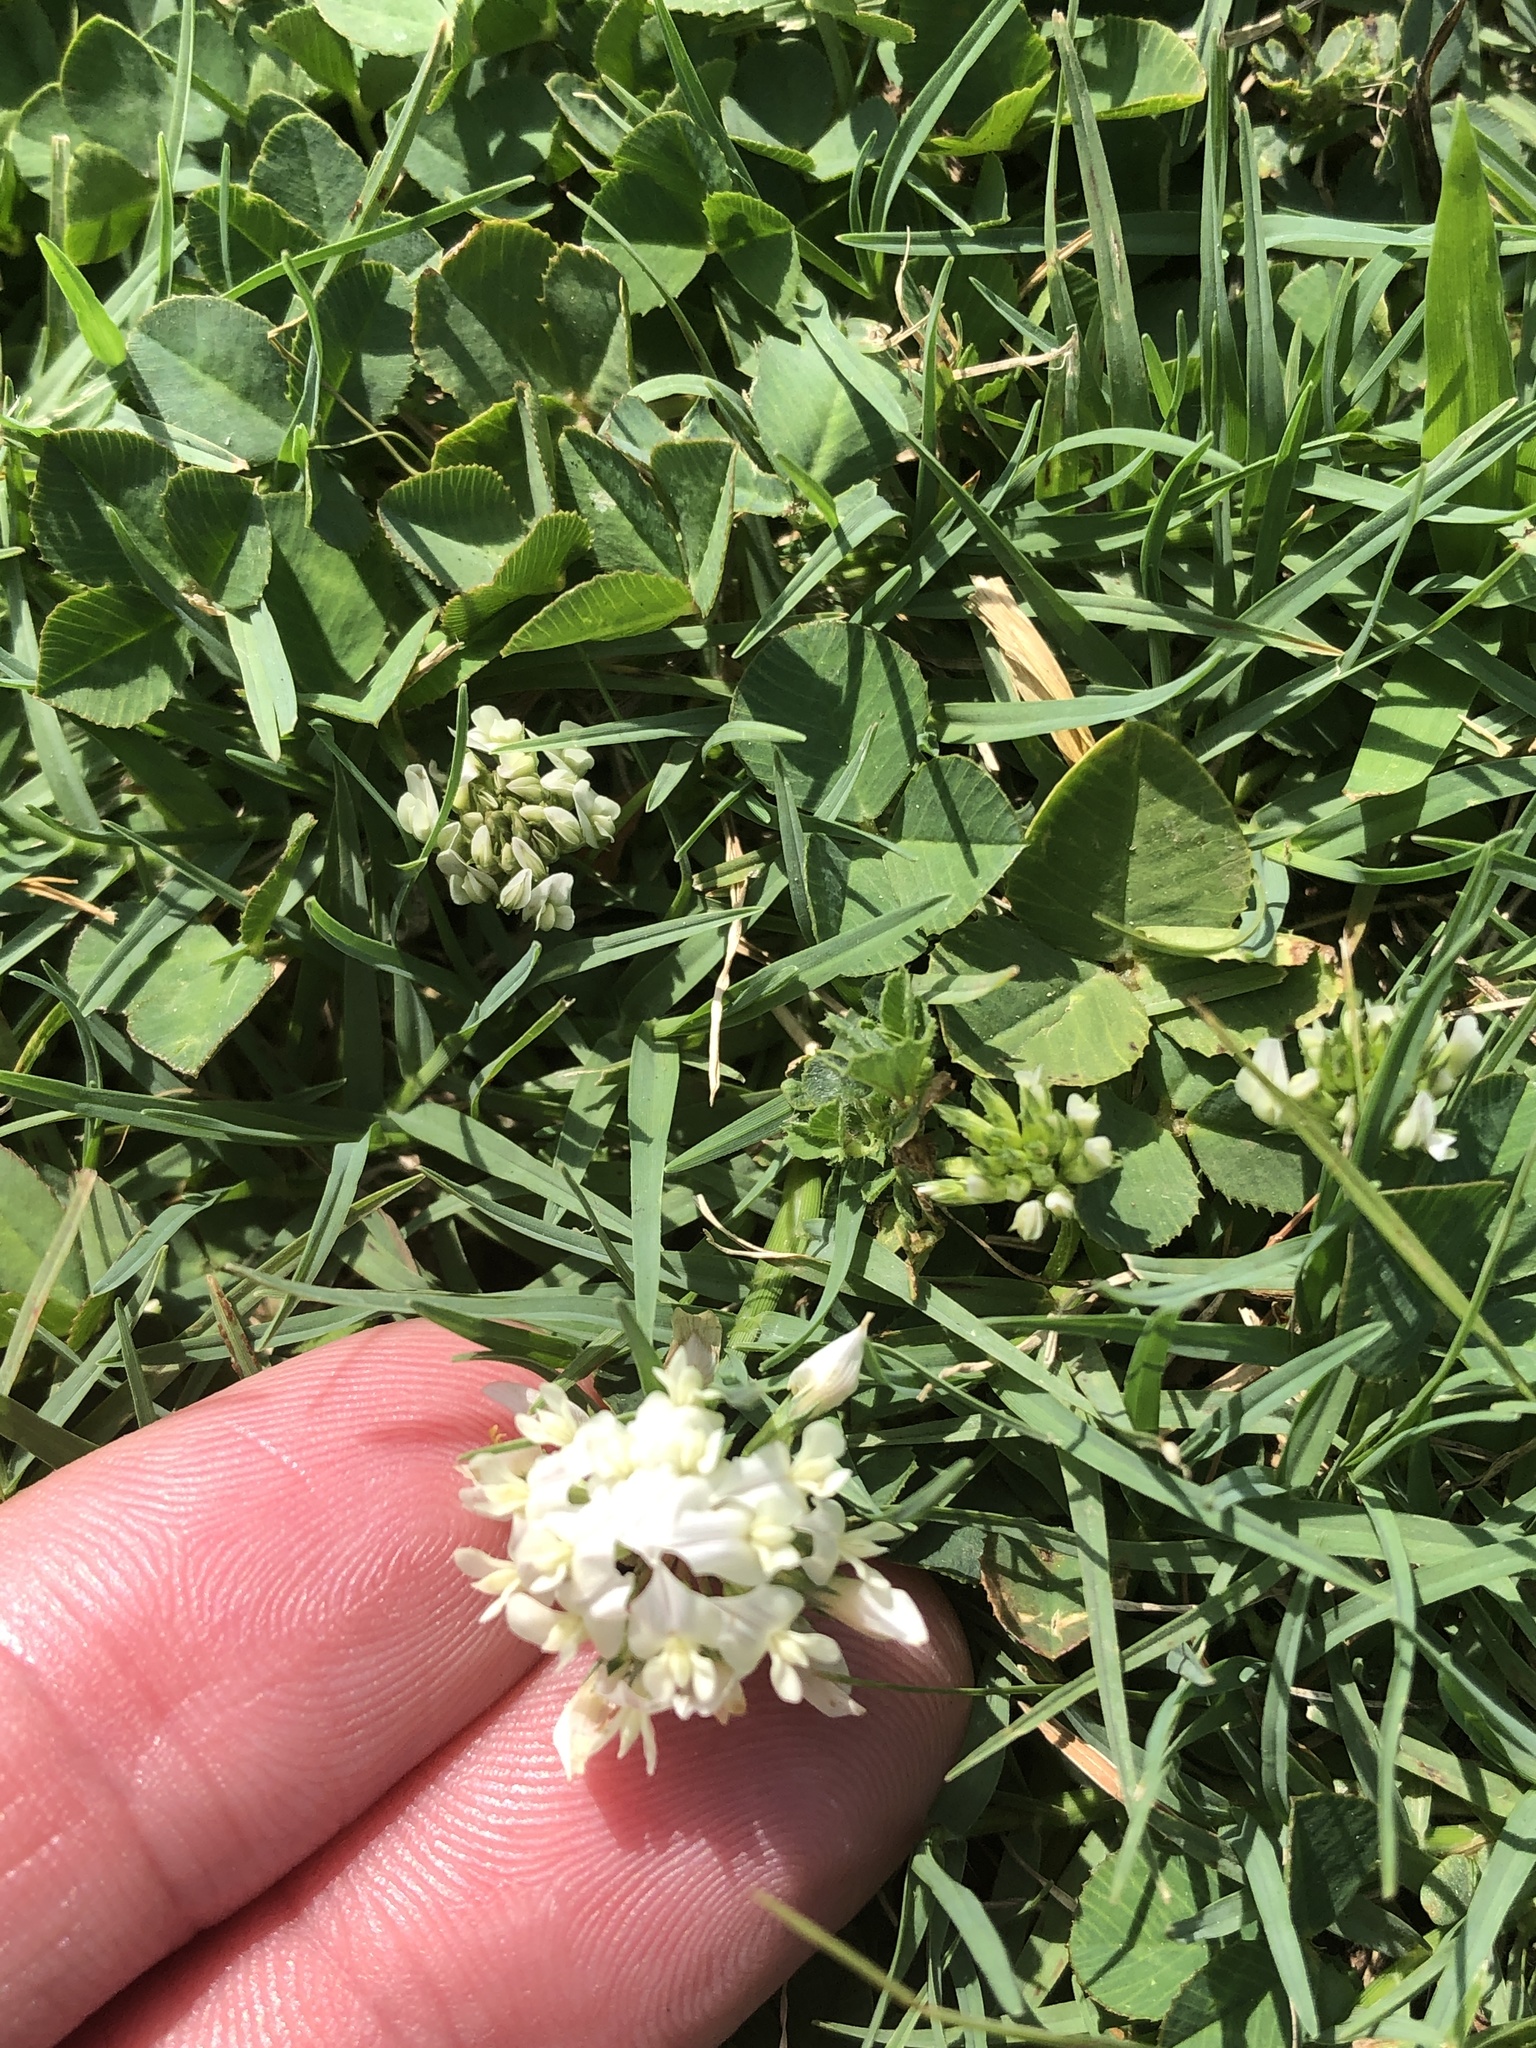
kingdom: Plantae
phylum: Tracheophyta
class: Magnoliopsida
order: Fabales
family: Fabaceae
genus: Trifolium
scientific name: Trifolium repens
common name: White clover
